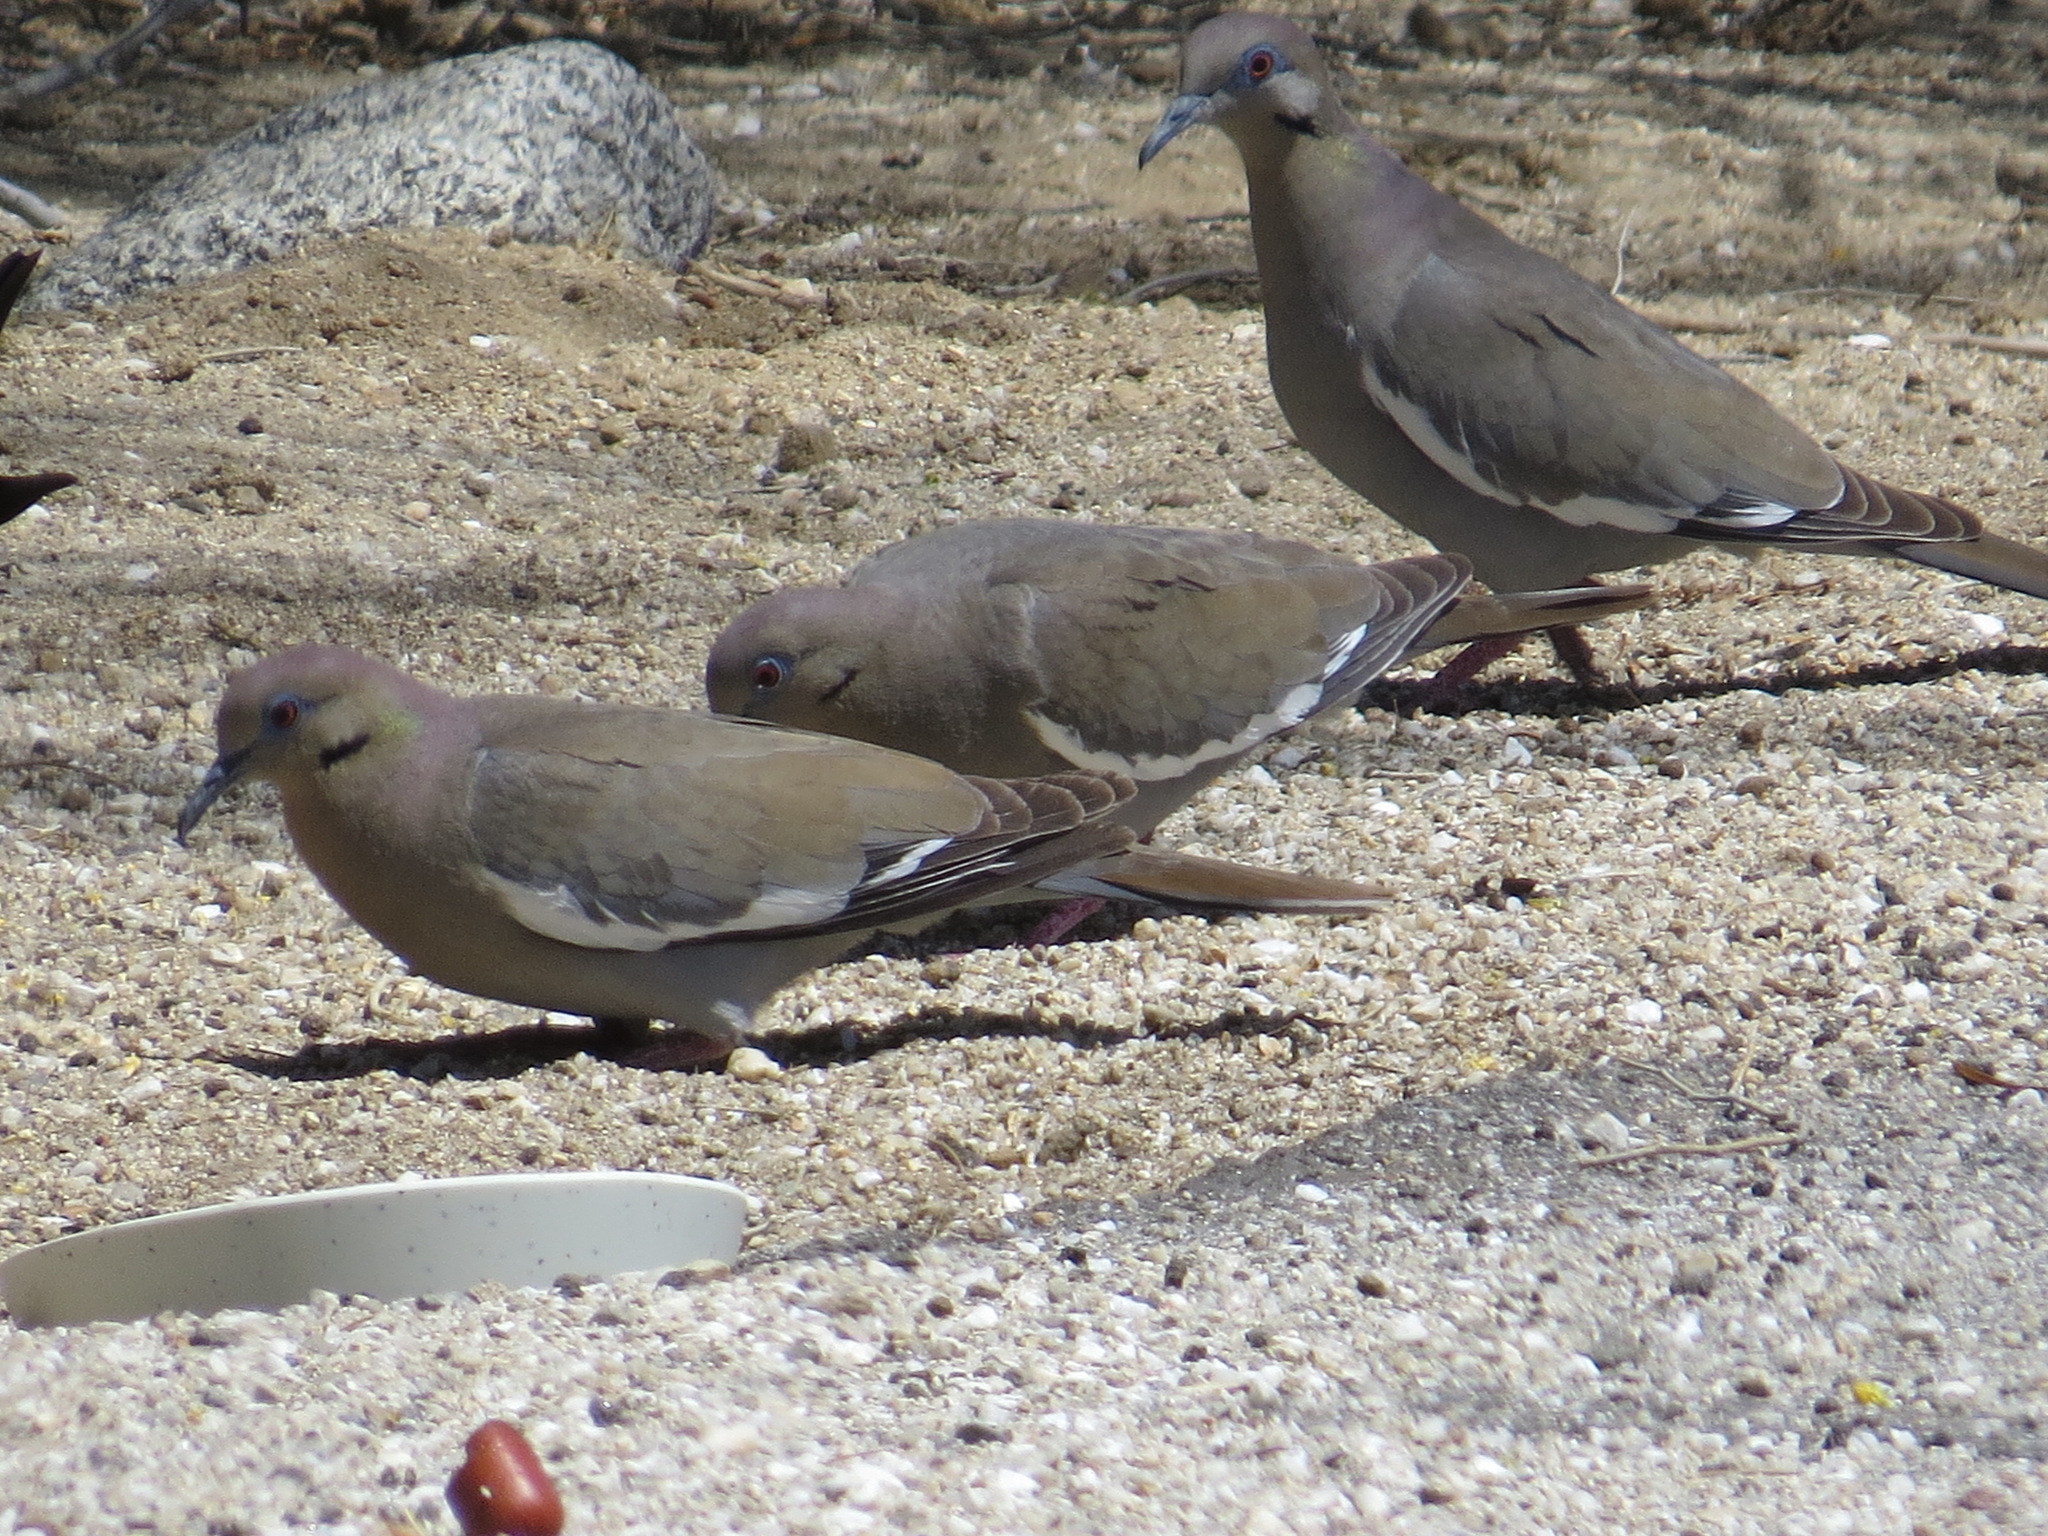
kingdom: Animalia
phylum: Chordata
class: Aves
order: Columbiformes
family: Columbidae
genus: Zenaida
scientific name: Zenaida asiatica
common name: White-winged dove
